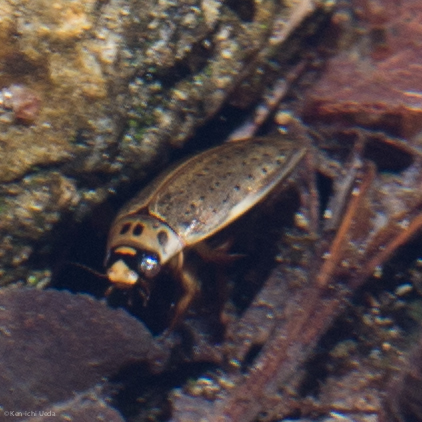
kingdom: Animalia
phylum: Arthropoda
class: Insecta
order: Coleoptera
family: Dytiscidae
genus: Rhantus
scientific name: Rhantus gutticollis
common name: Predaceous diving beetle
